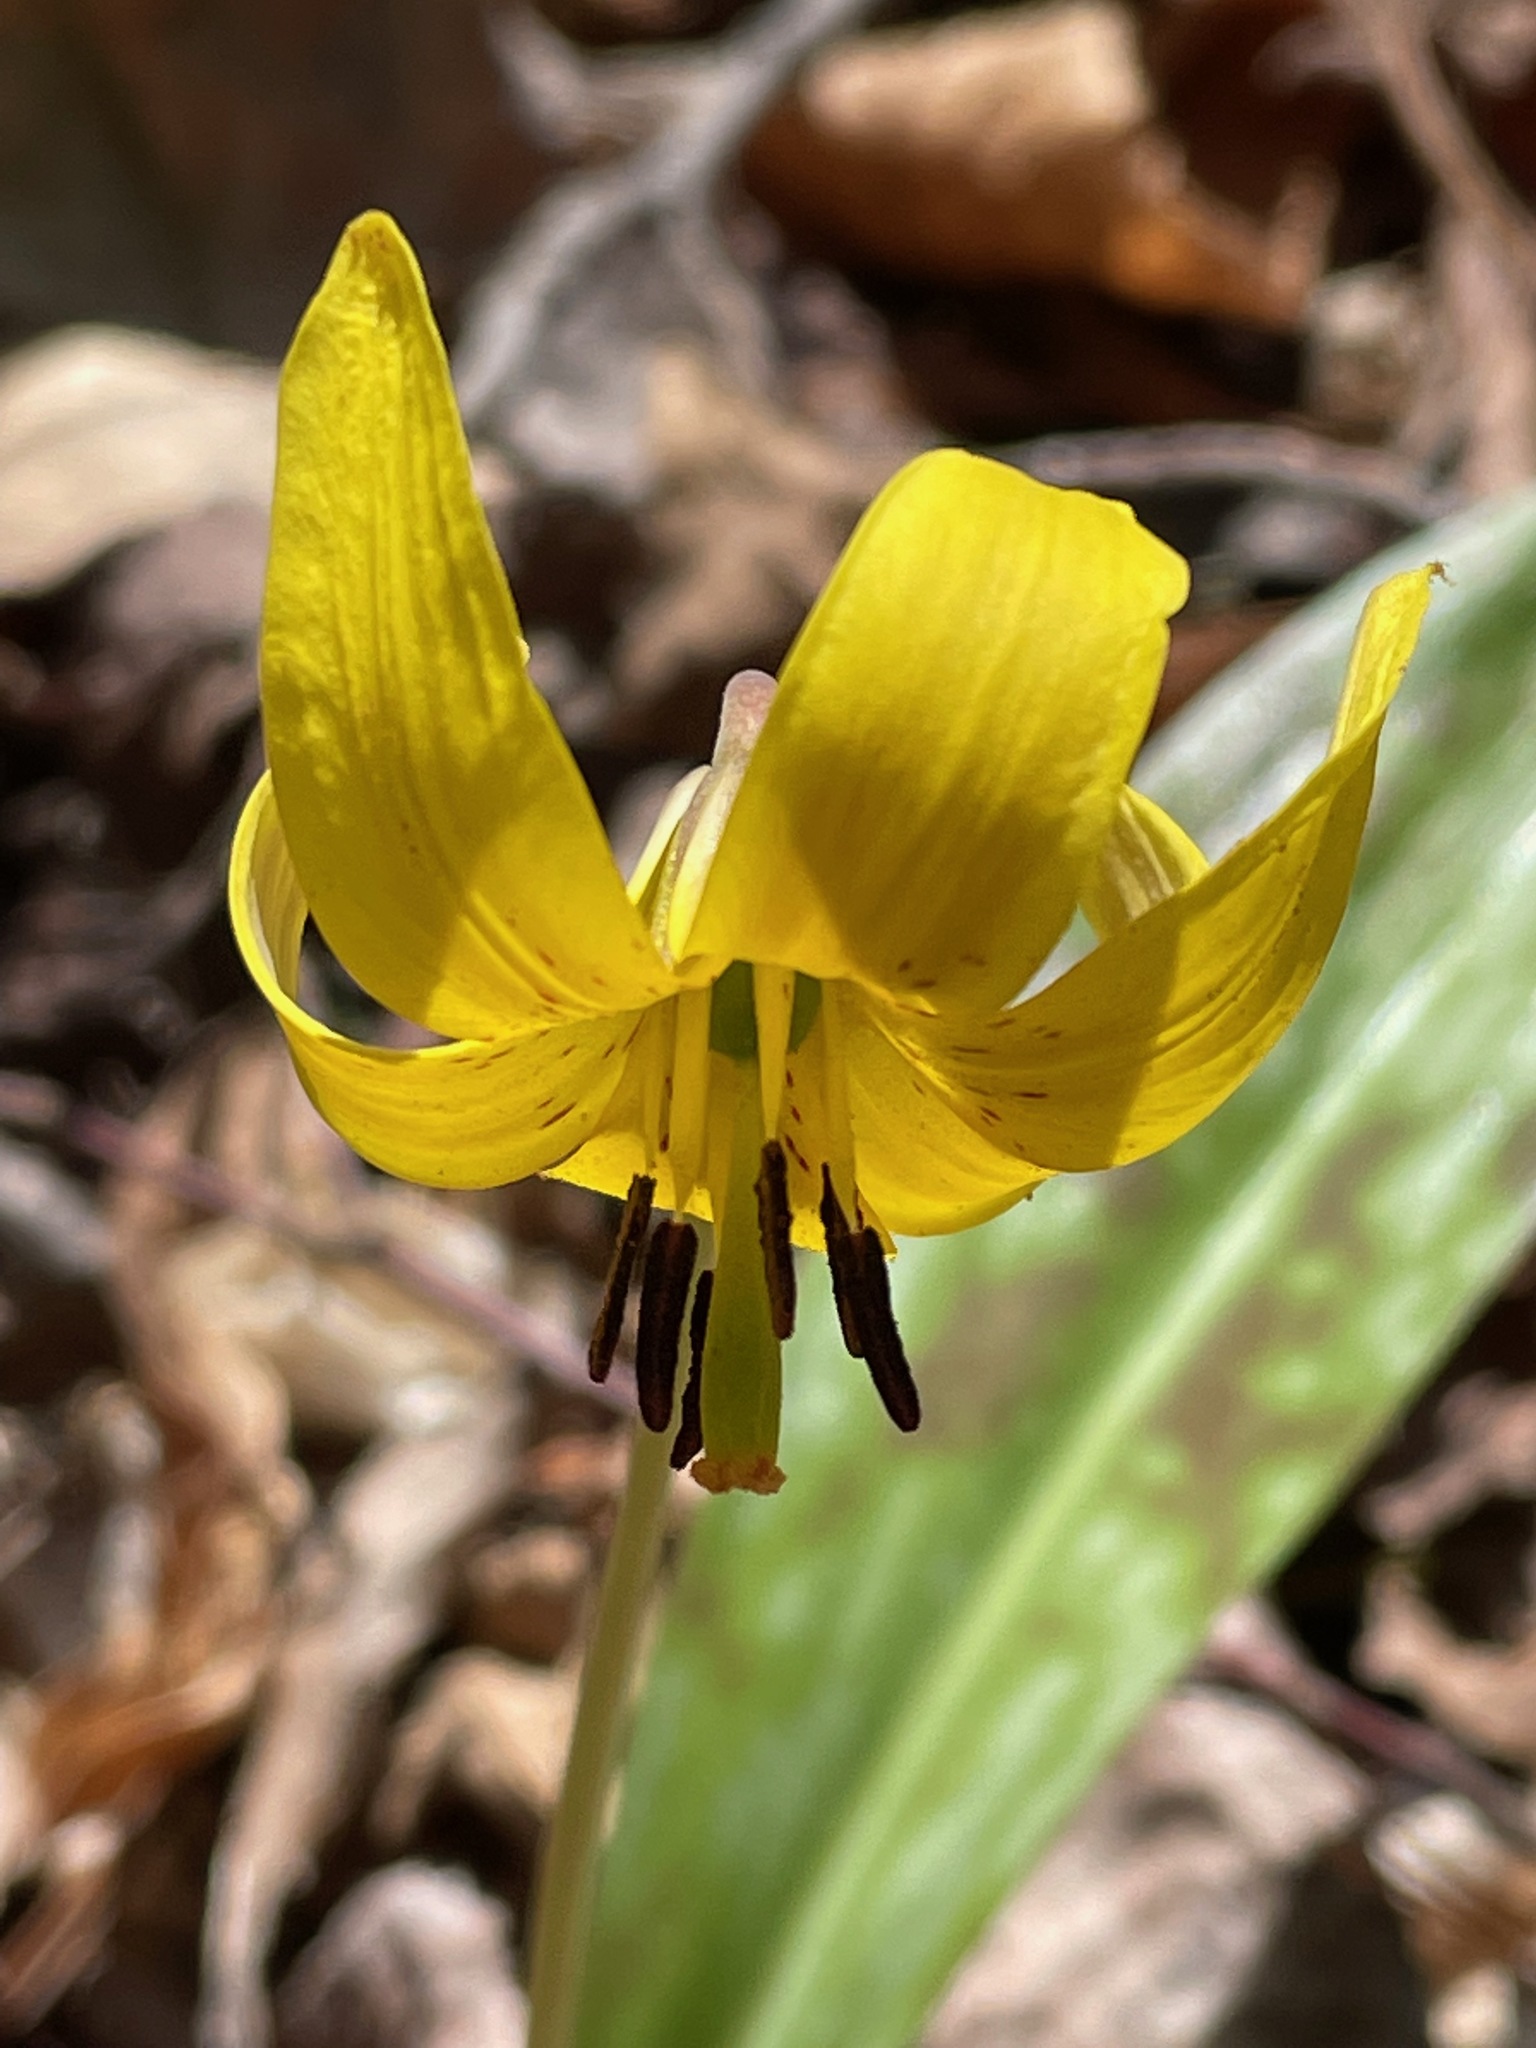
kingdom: Plantae
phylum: Tracheophyta
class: Liliopsida
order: Liliales
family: Liliaceae
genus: Erythronium
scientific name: Erythronium americanum
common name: Yellow adder's-tongue
